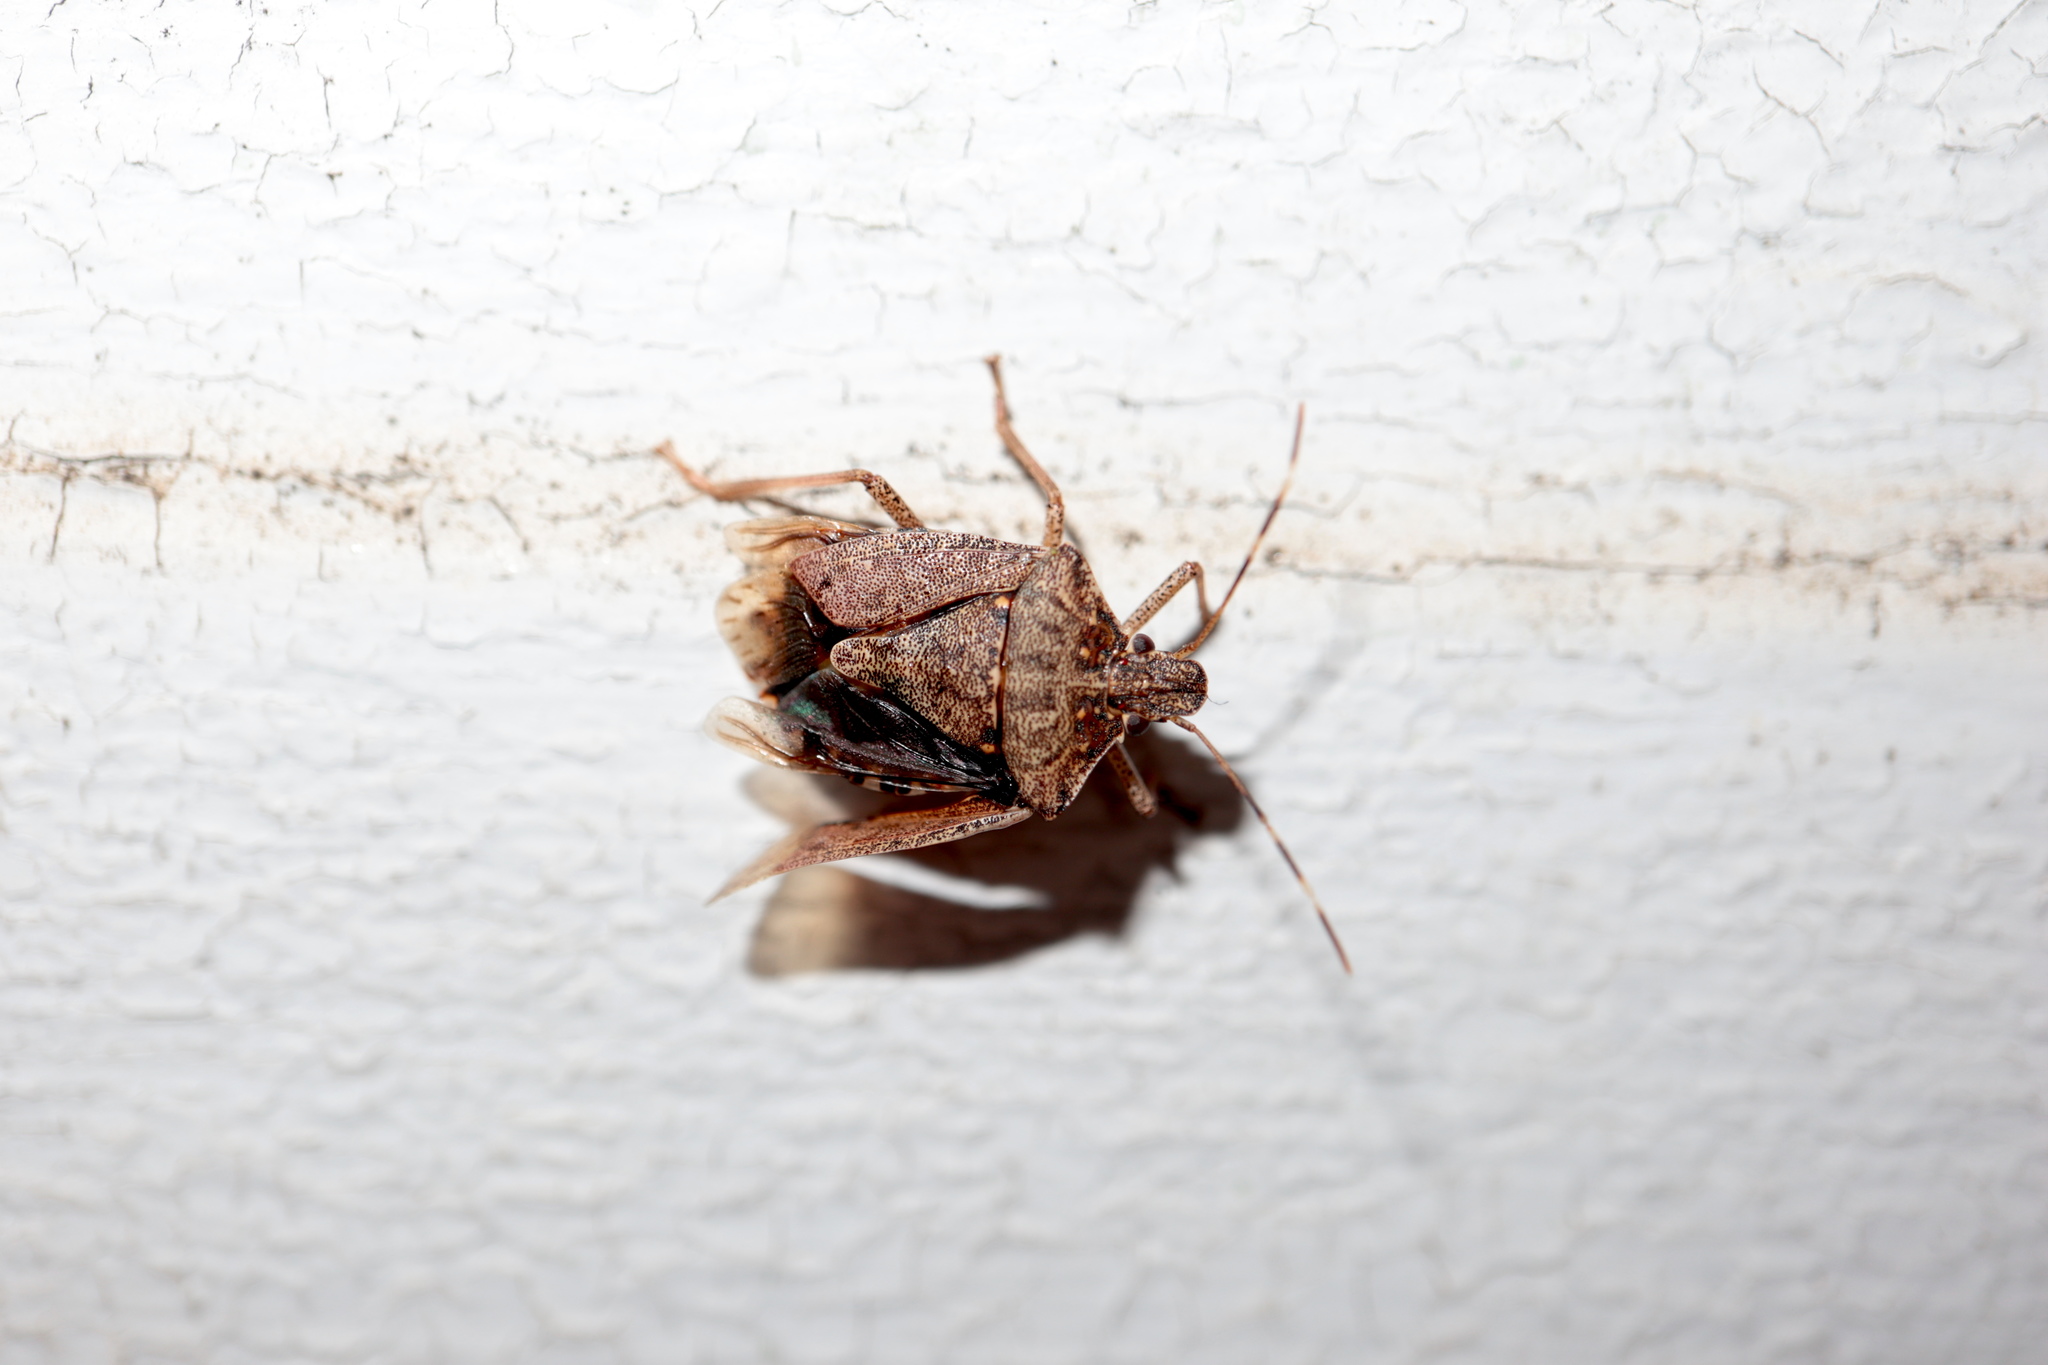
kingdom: Animalia
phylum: Arthropoda
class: Insecta
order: Hemiptera
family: Pentatomidae
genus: Halyomorpha
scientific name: Halyomorpha halys
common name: Brown marmorated stink bug
